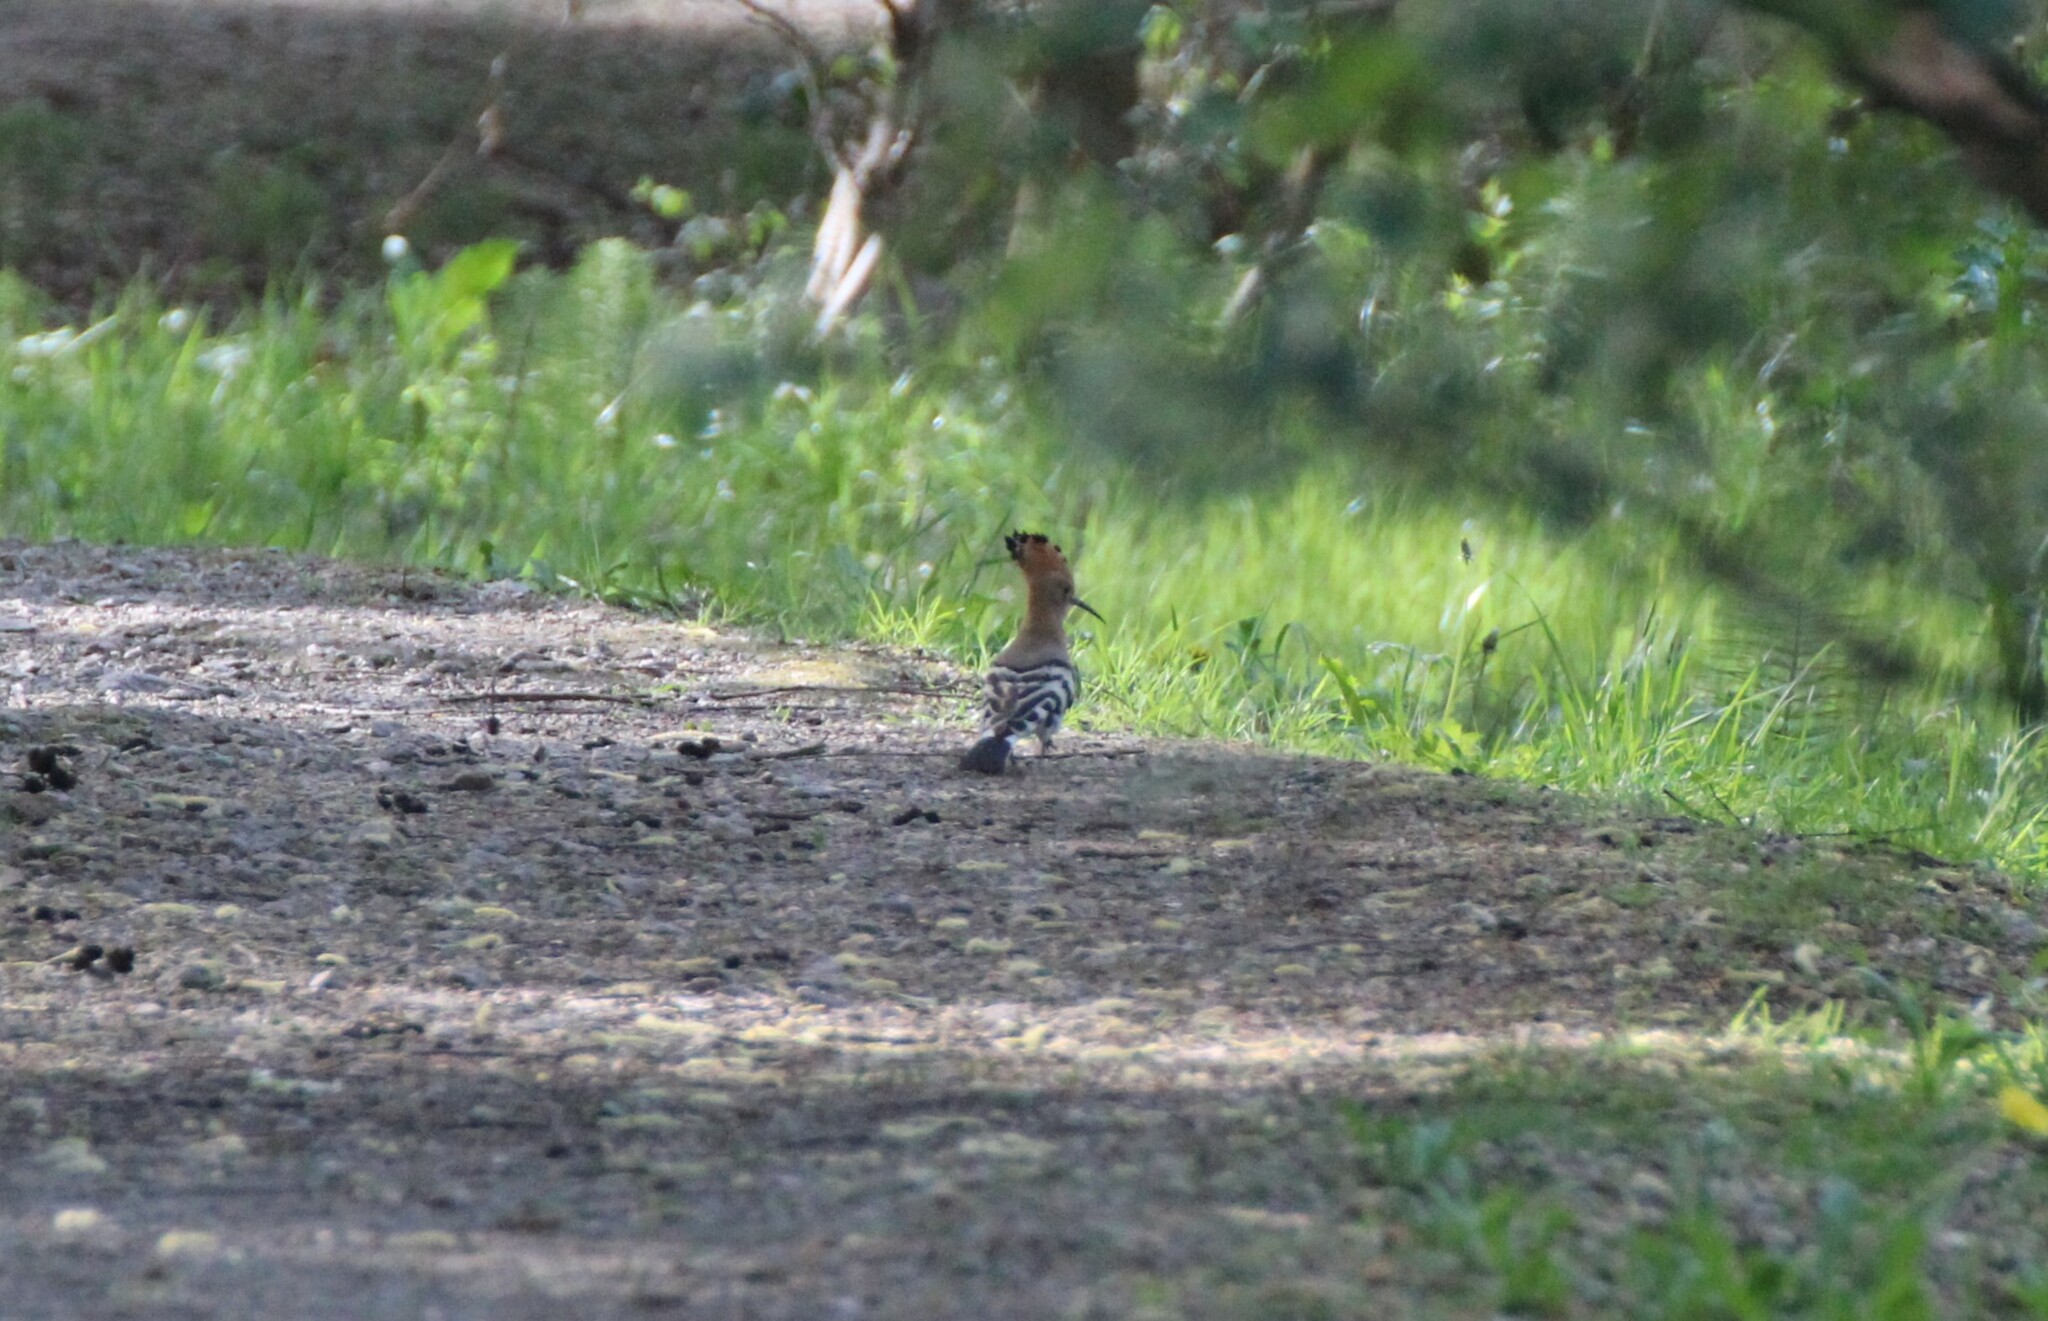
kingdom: Animalia
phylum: Chordata
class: Aves
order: Bucerotiformes
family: Upupidae
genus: Upupa
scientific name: Upupa epops
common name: Eurasian hoopoe
